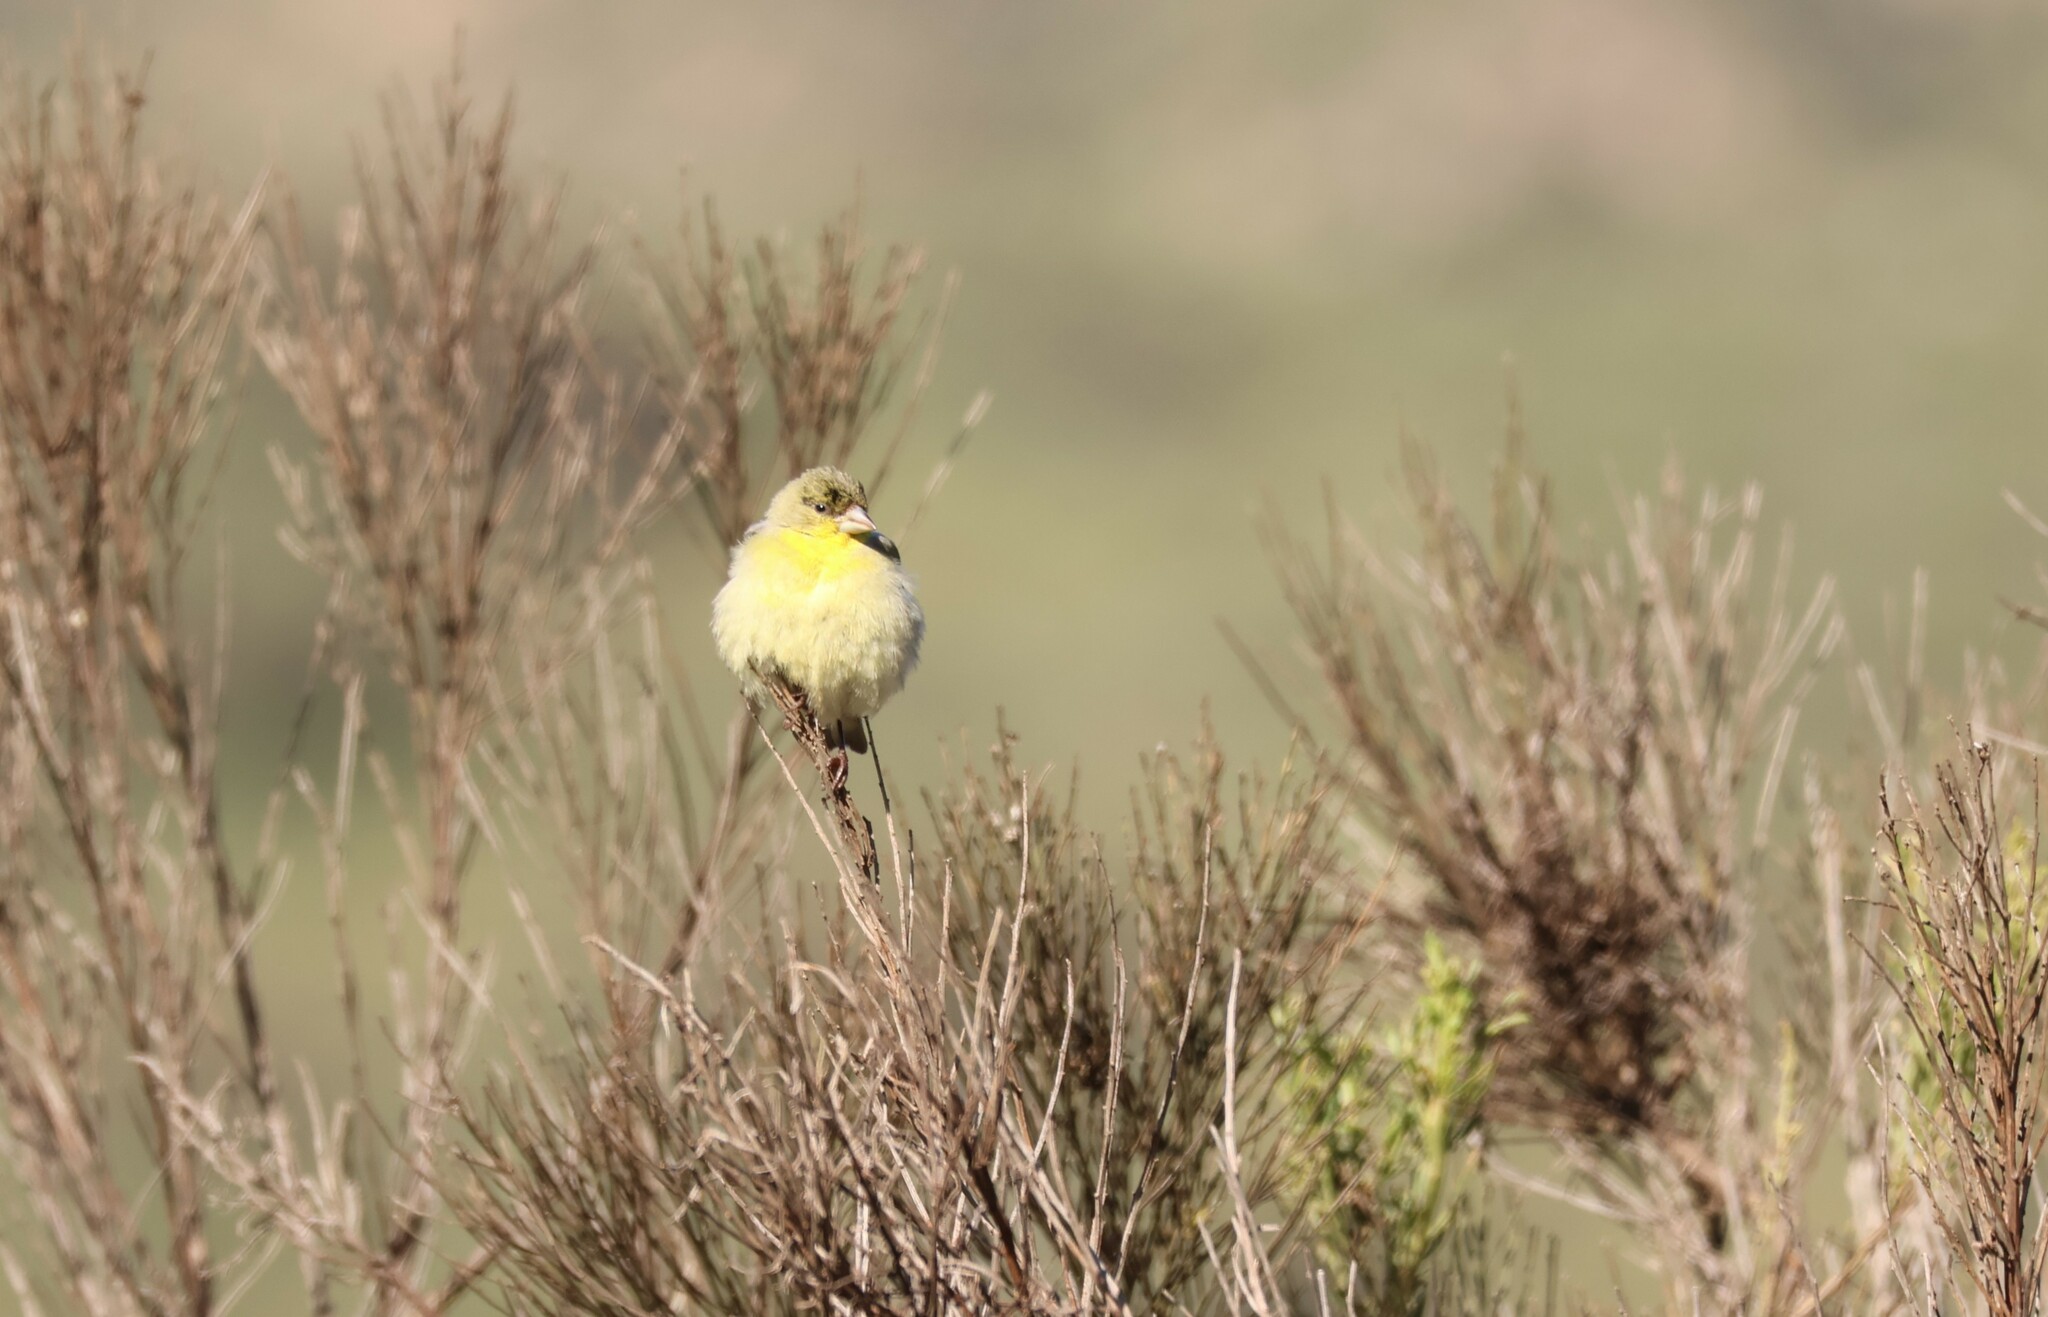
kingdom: Animalia
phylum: Chordata
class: Aves
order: Passeriformes
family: Fringillidae
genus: Spinus
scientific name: Spinus psaltria
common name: Lesser goldfinch
